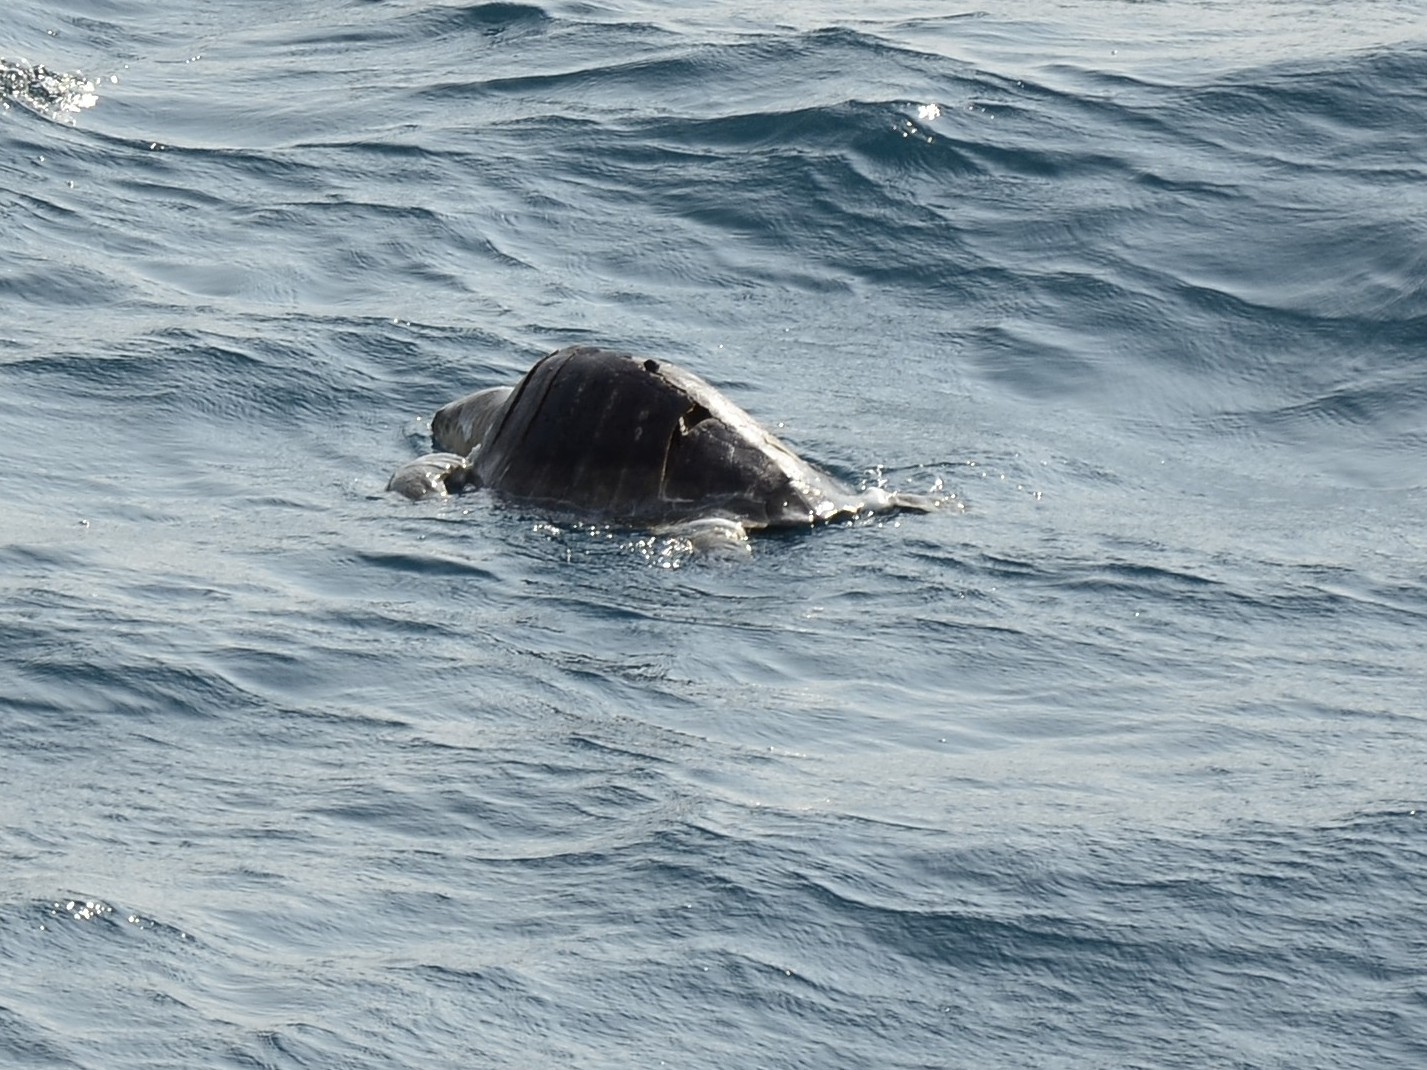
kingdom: Animalia
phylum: Chordata
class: Testudines
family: Cheloniidae
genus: Lepidochelys
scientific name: Lepidochelys olivacea
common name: Olive ridley
